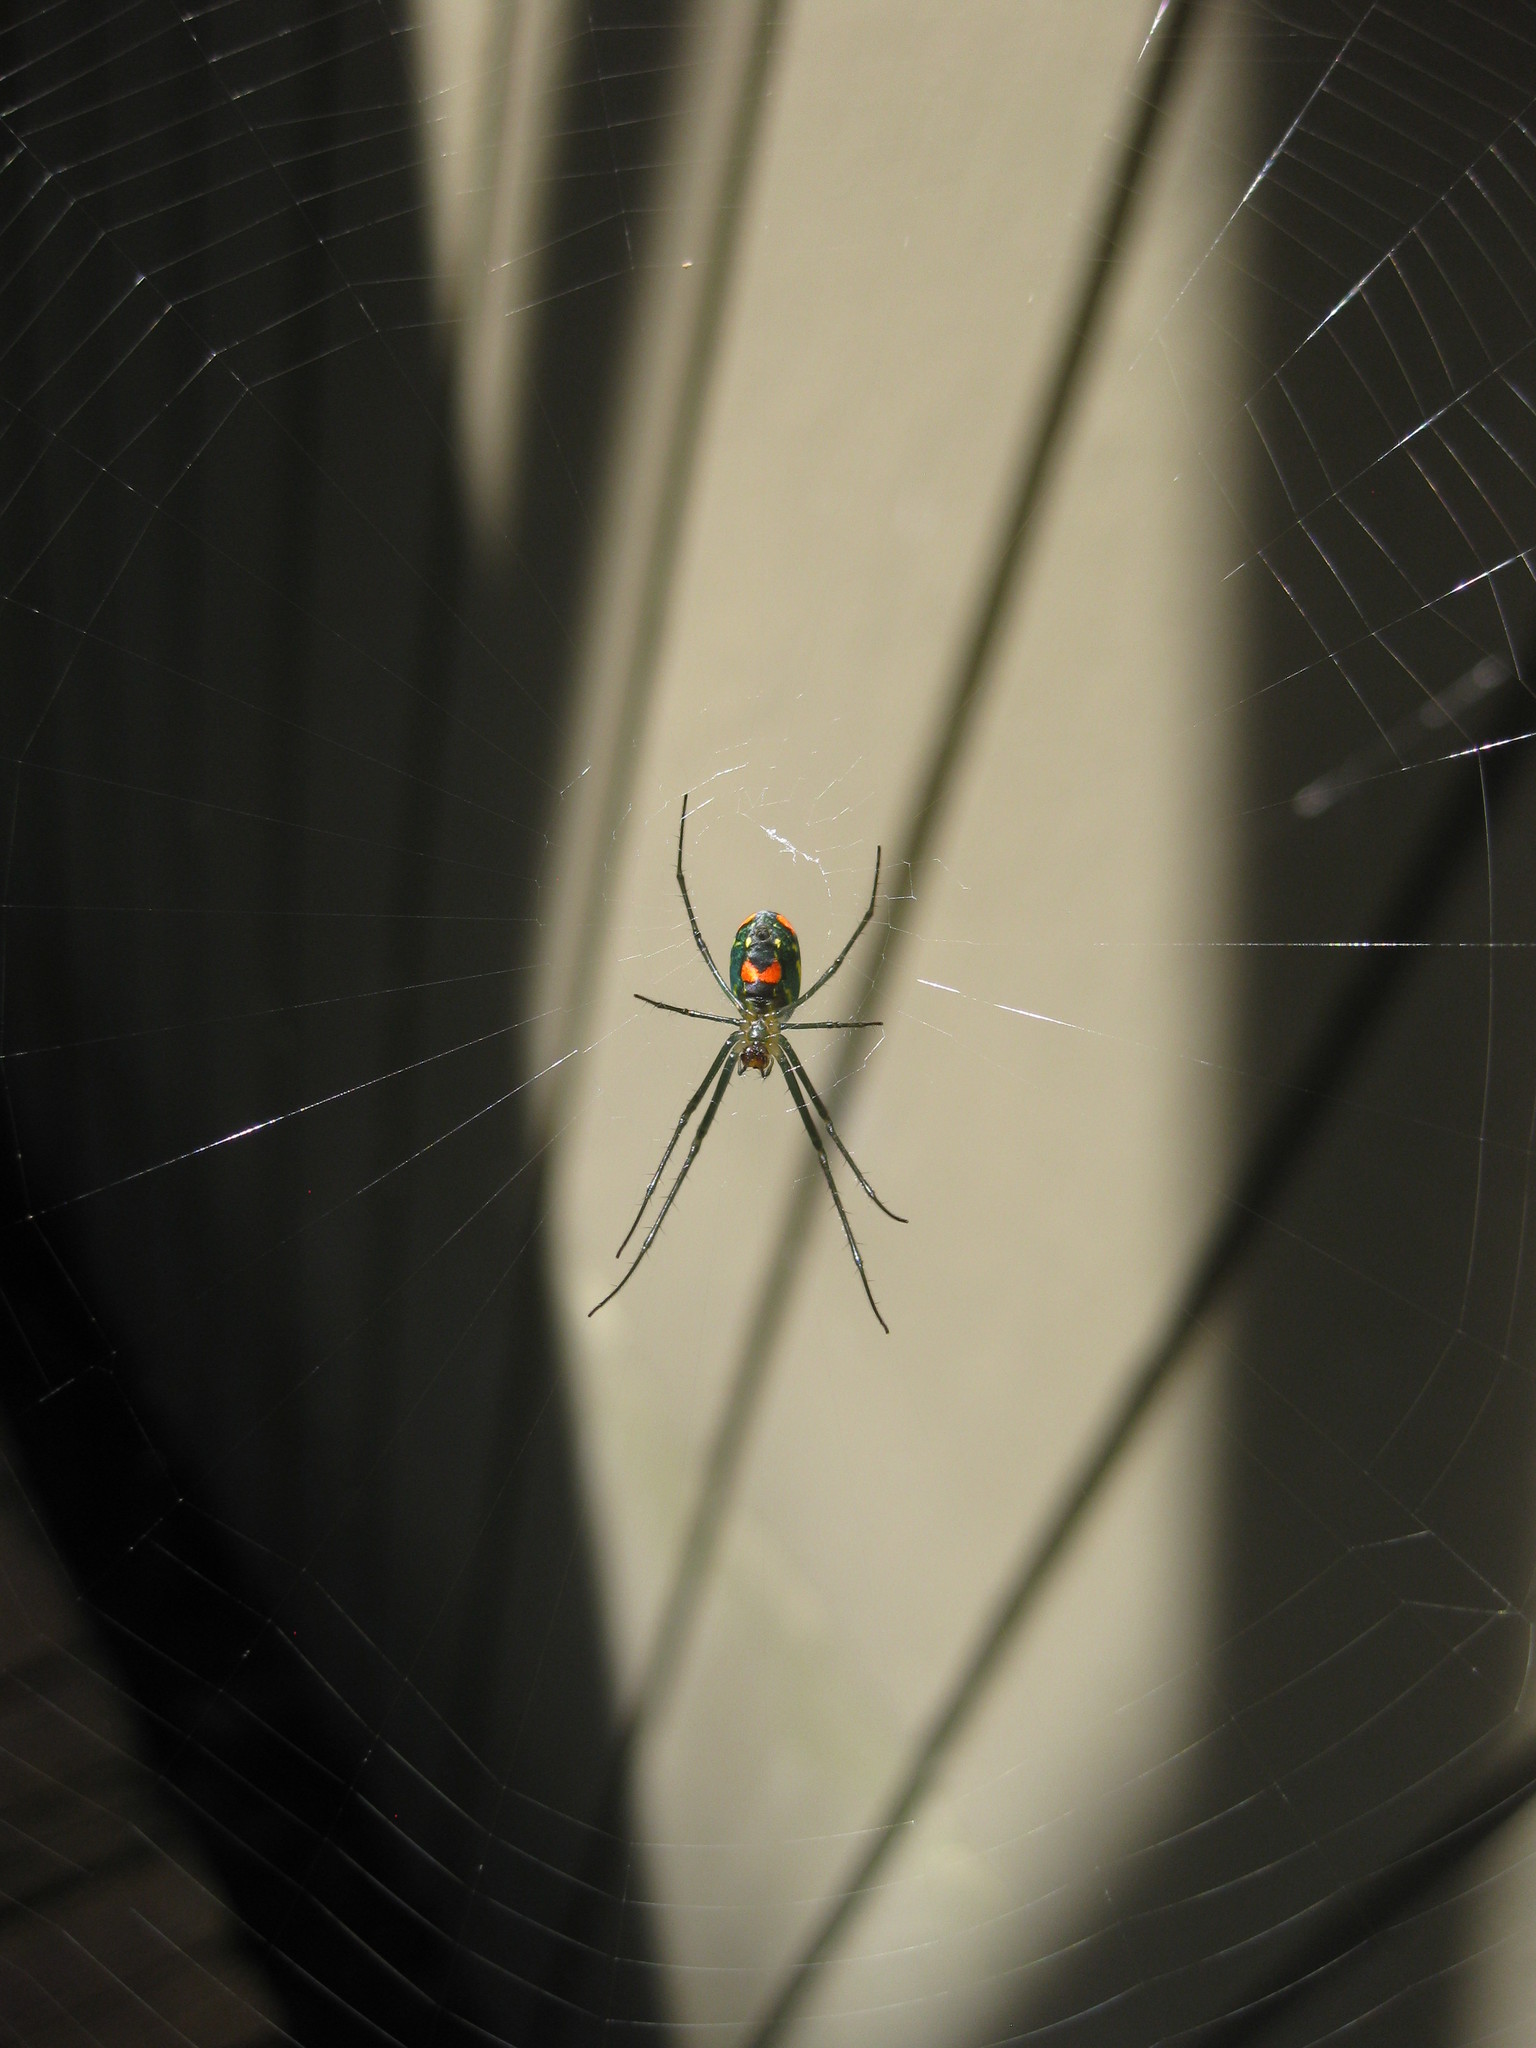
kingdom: Animalia
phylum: Arthropoda
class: Arachnida
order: Araneae
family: Tetragnathidae
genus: Leucauge
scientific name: Leucauge argyrobapta
